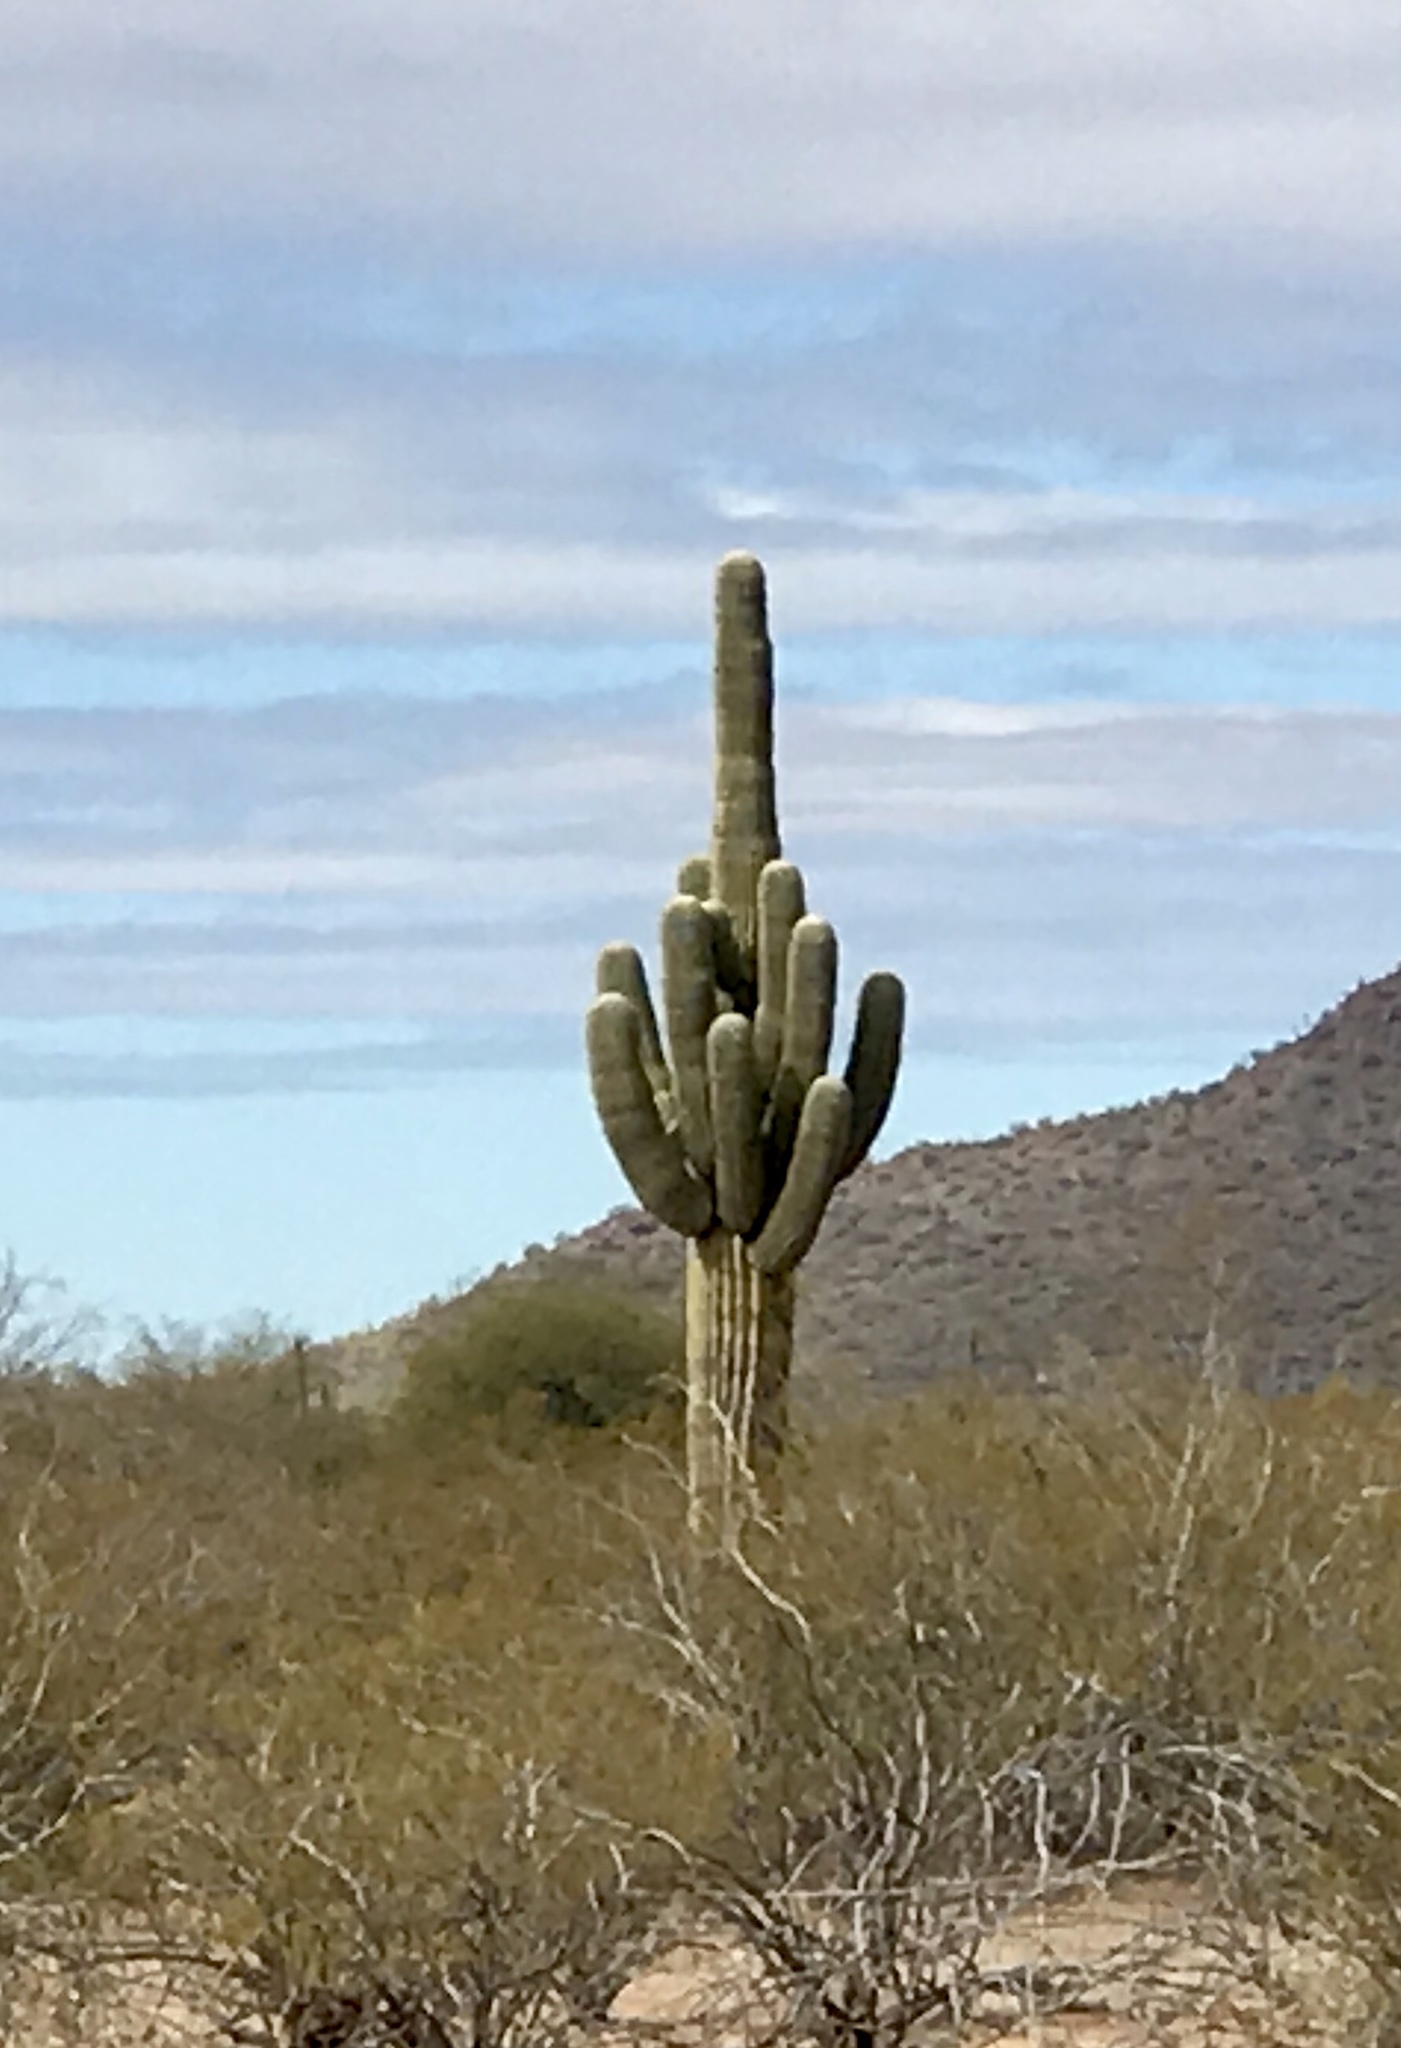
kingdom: Plantae
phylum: Tracheophyta
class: Magnoliopsida
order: Caryophyllales
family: Cactaceae
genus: Carnegiea
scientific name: Carnegiea gigantea
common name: Saguaro
